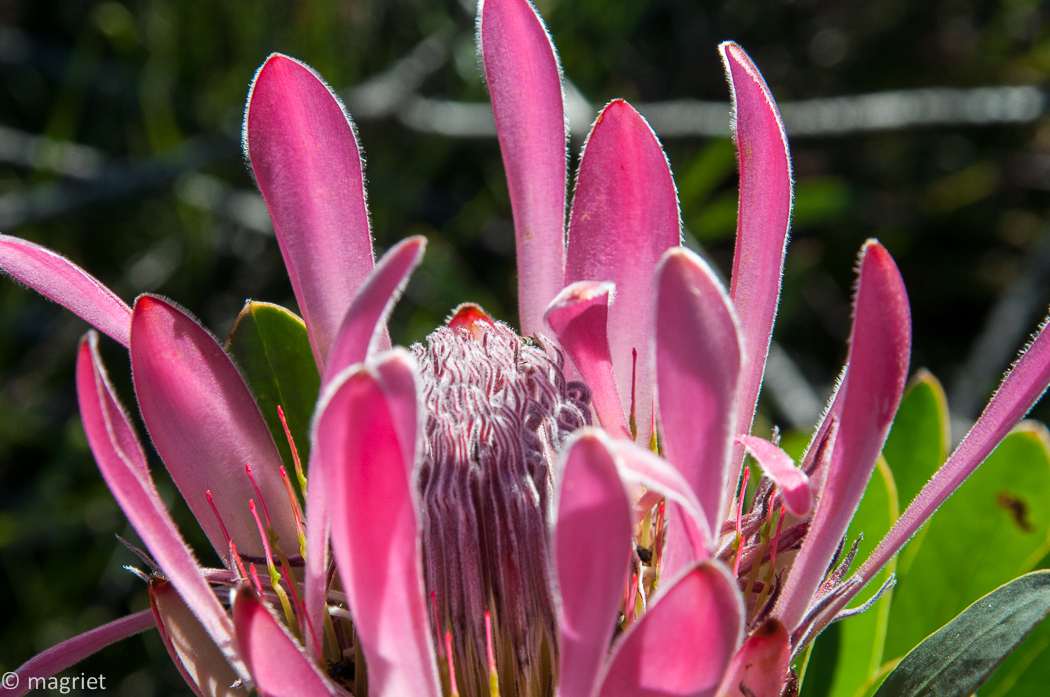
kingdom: Plantae
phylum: Tracheophyta
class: Magnoliopsida
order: Proteales
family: Proteaceae
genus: Protea
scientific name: Protea compacta
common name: Bot river protea
